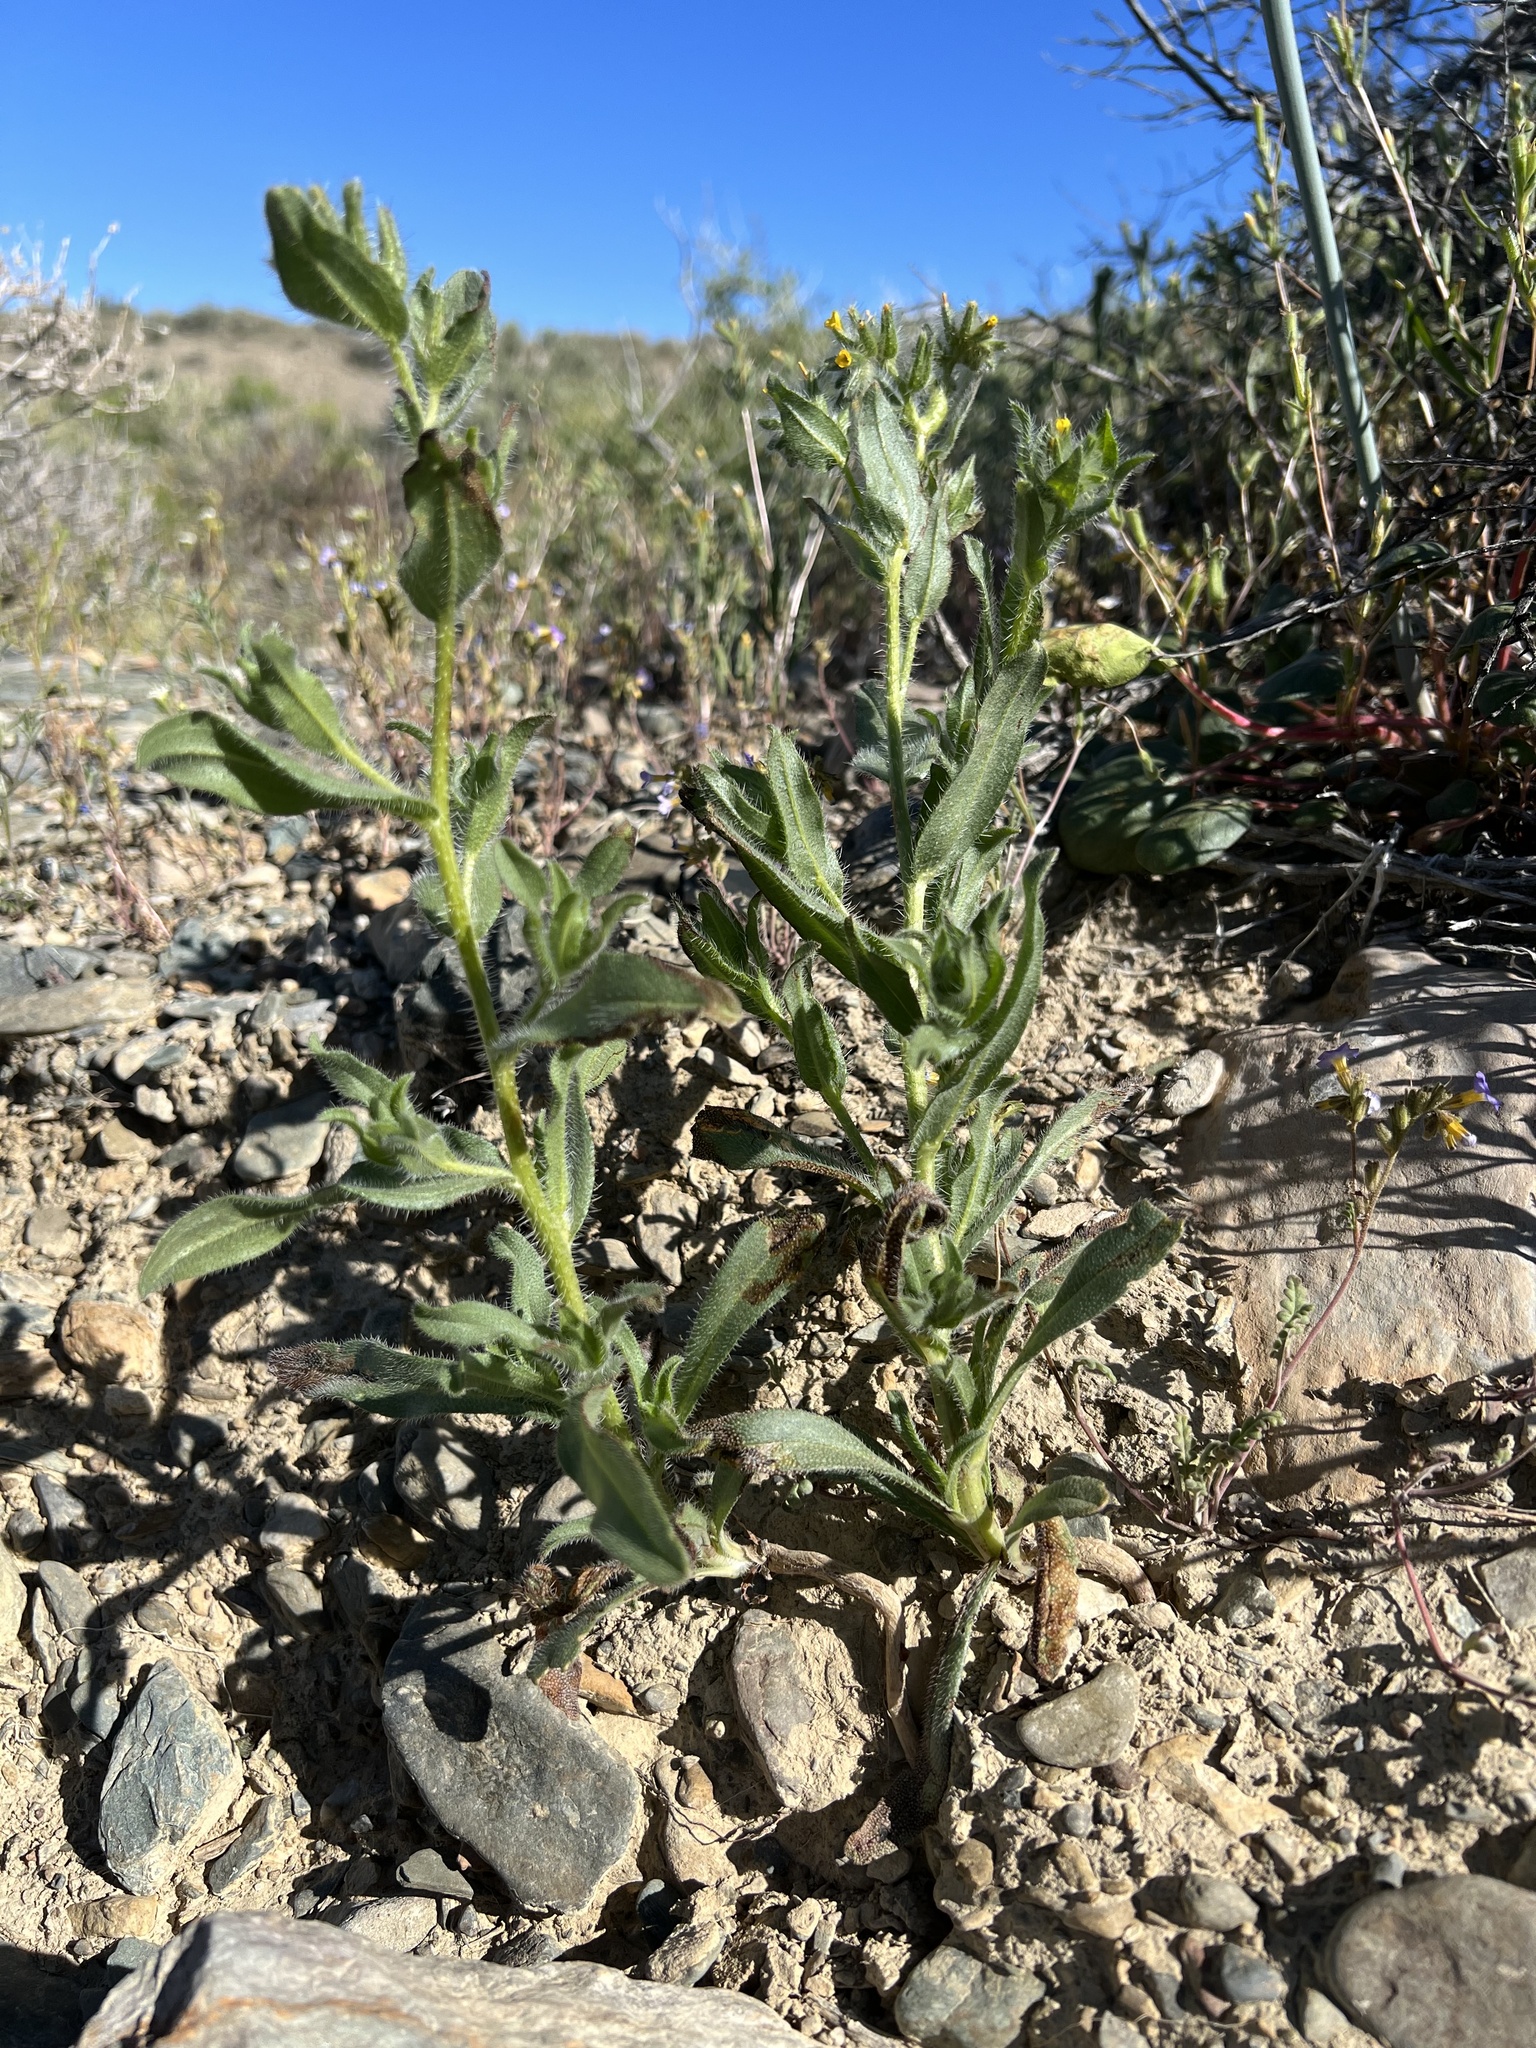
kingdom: Plantae
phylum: Tracheophyta
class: Magnoliopsida
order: Boraginales
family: Boraginaceae
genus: Amsinckia
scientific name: Amsinckia tessellata
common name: Tessellate fiddleneck
